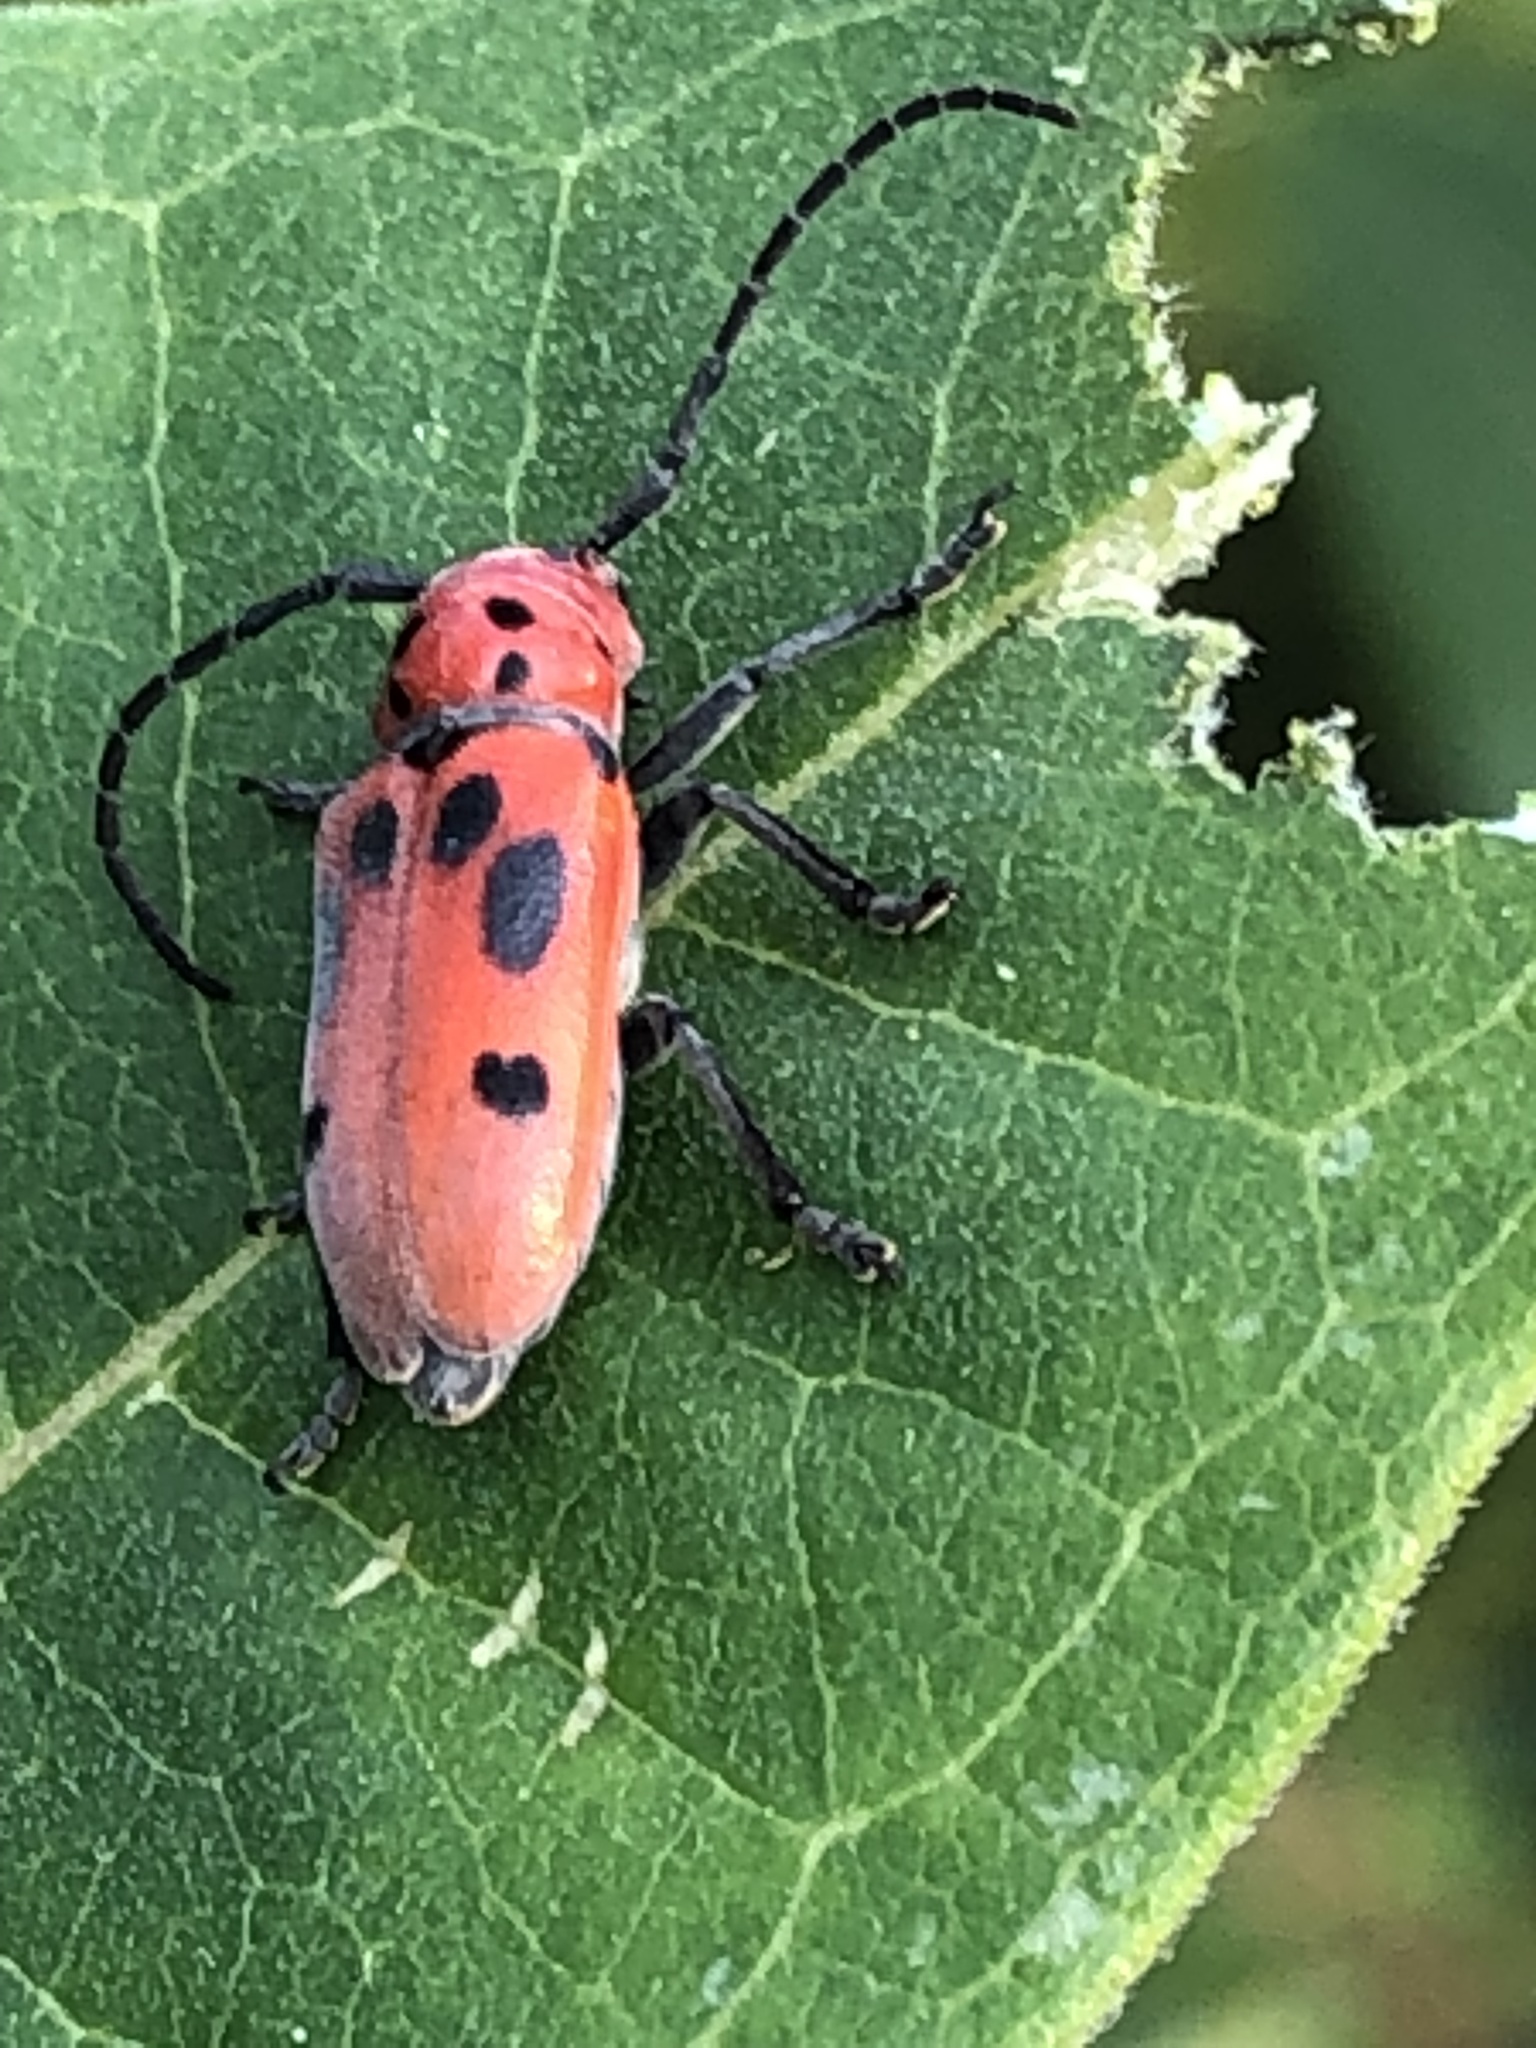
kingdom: Animalia
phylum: Arthropoda
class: Insecta
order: Coleoptera
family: Cerambycidae
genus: Tetraopes
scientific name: Tetraopes tetrophthalmus
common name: Red milkweed beetle
